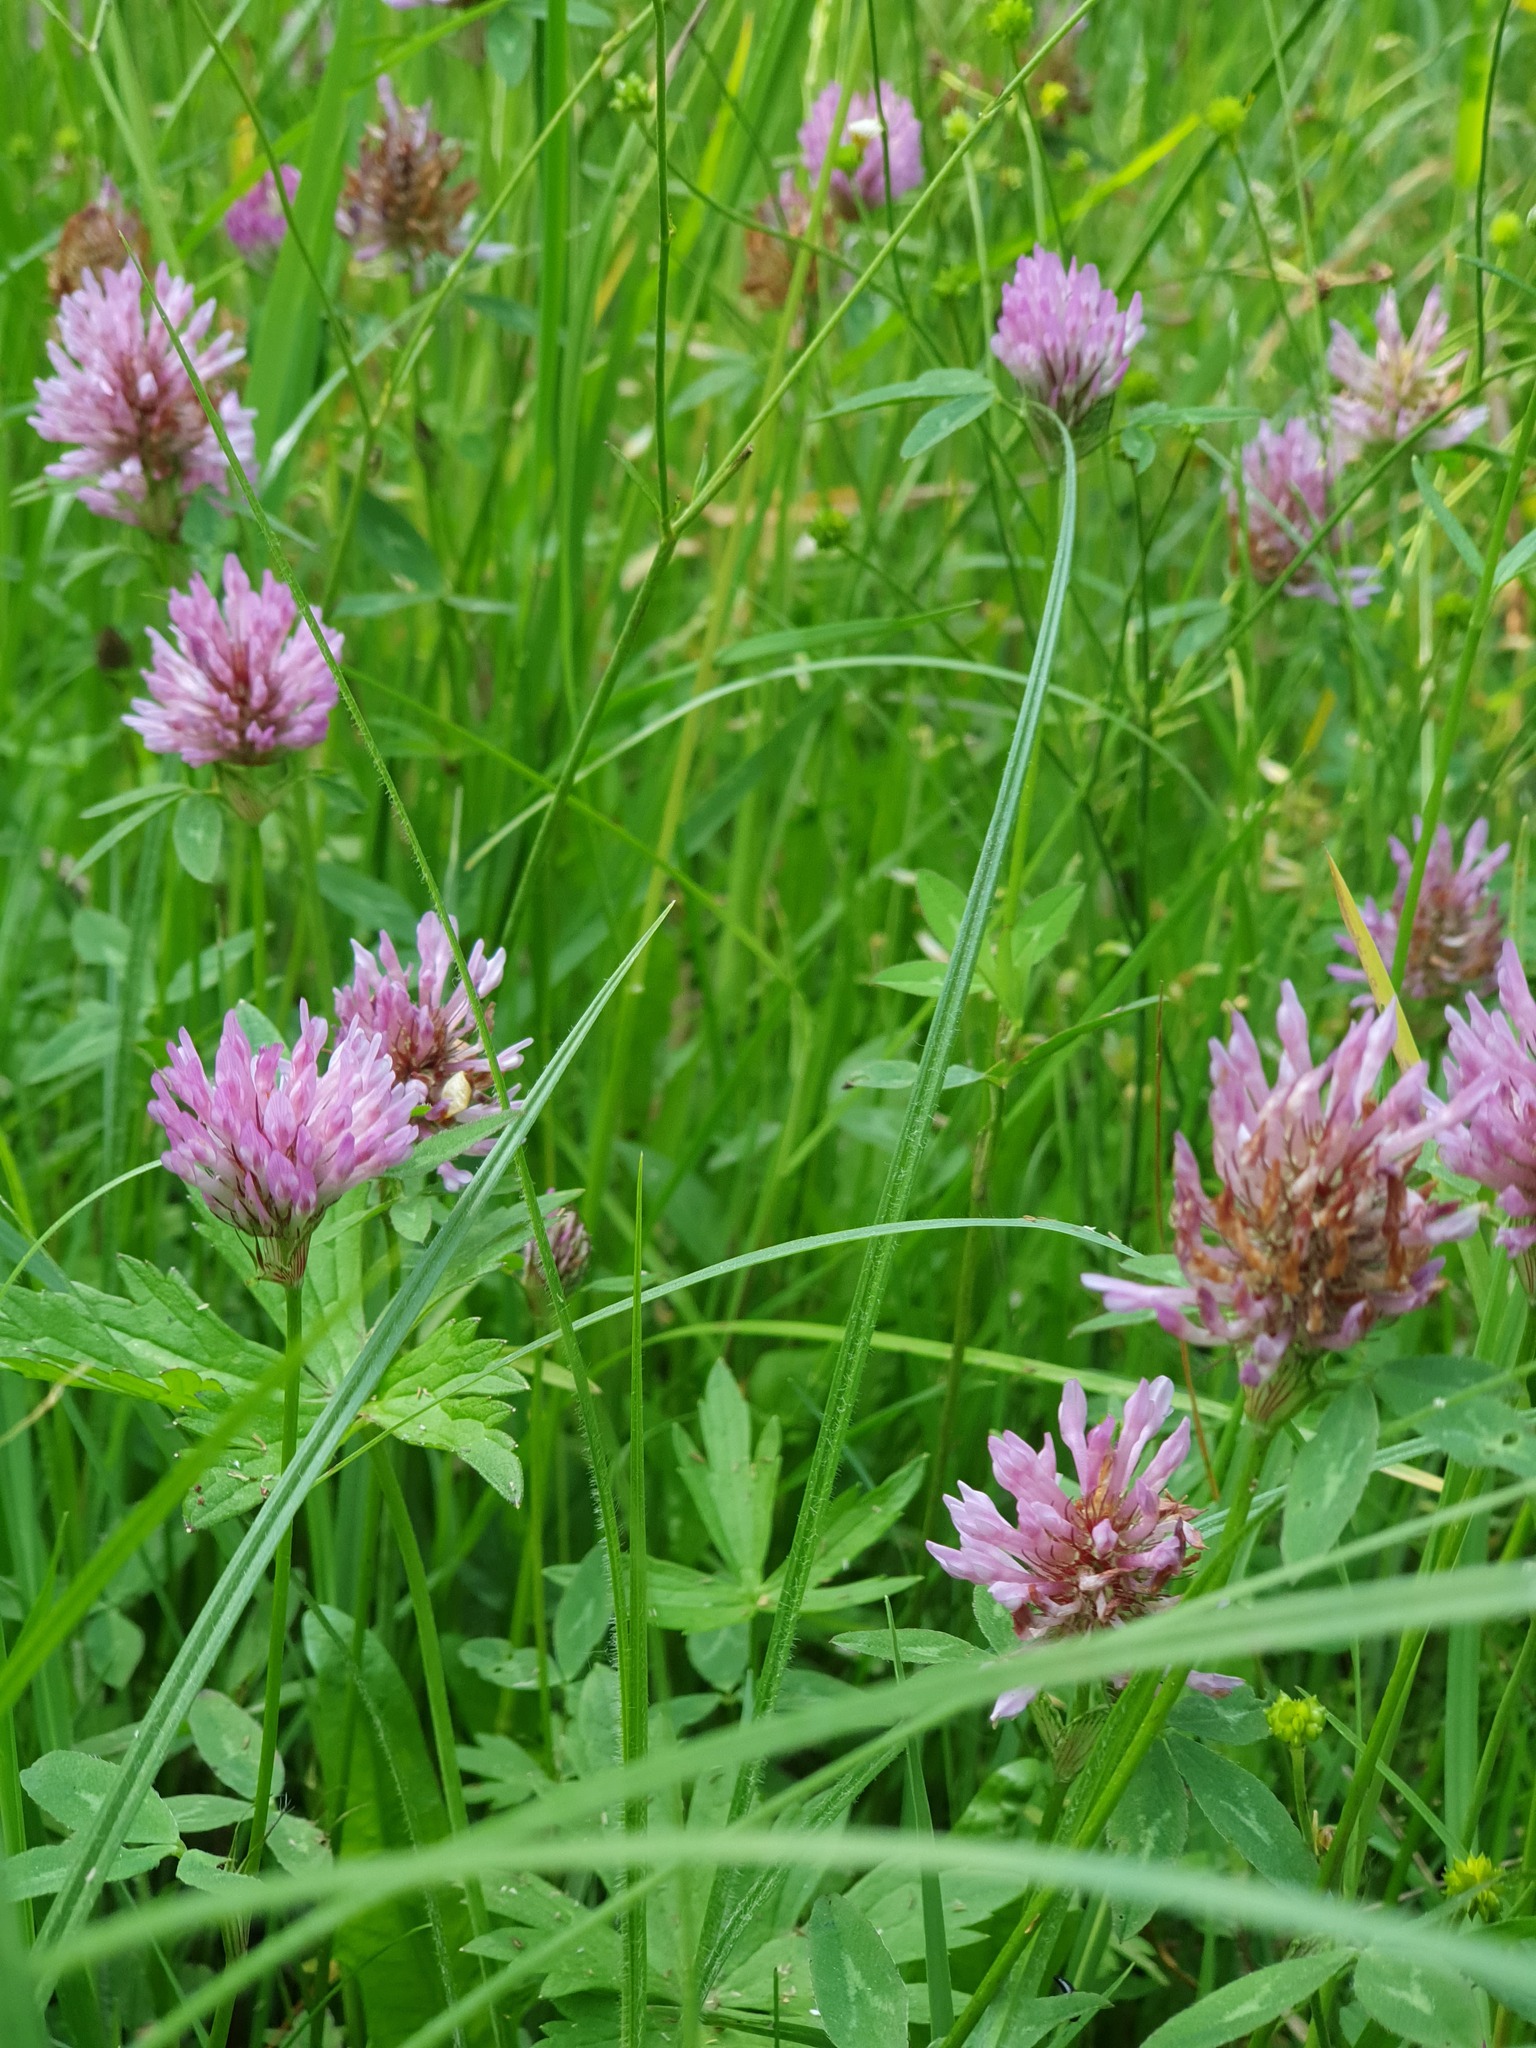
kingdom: Plantae
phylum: Tracheophyta
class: Magnoliopsida
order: Fabales
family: Fabaceae
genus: Trifolium
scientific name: Trifolium pratense
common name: Red clover
